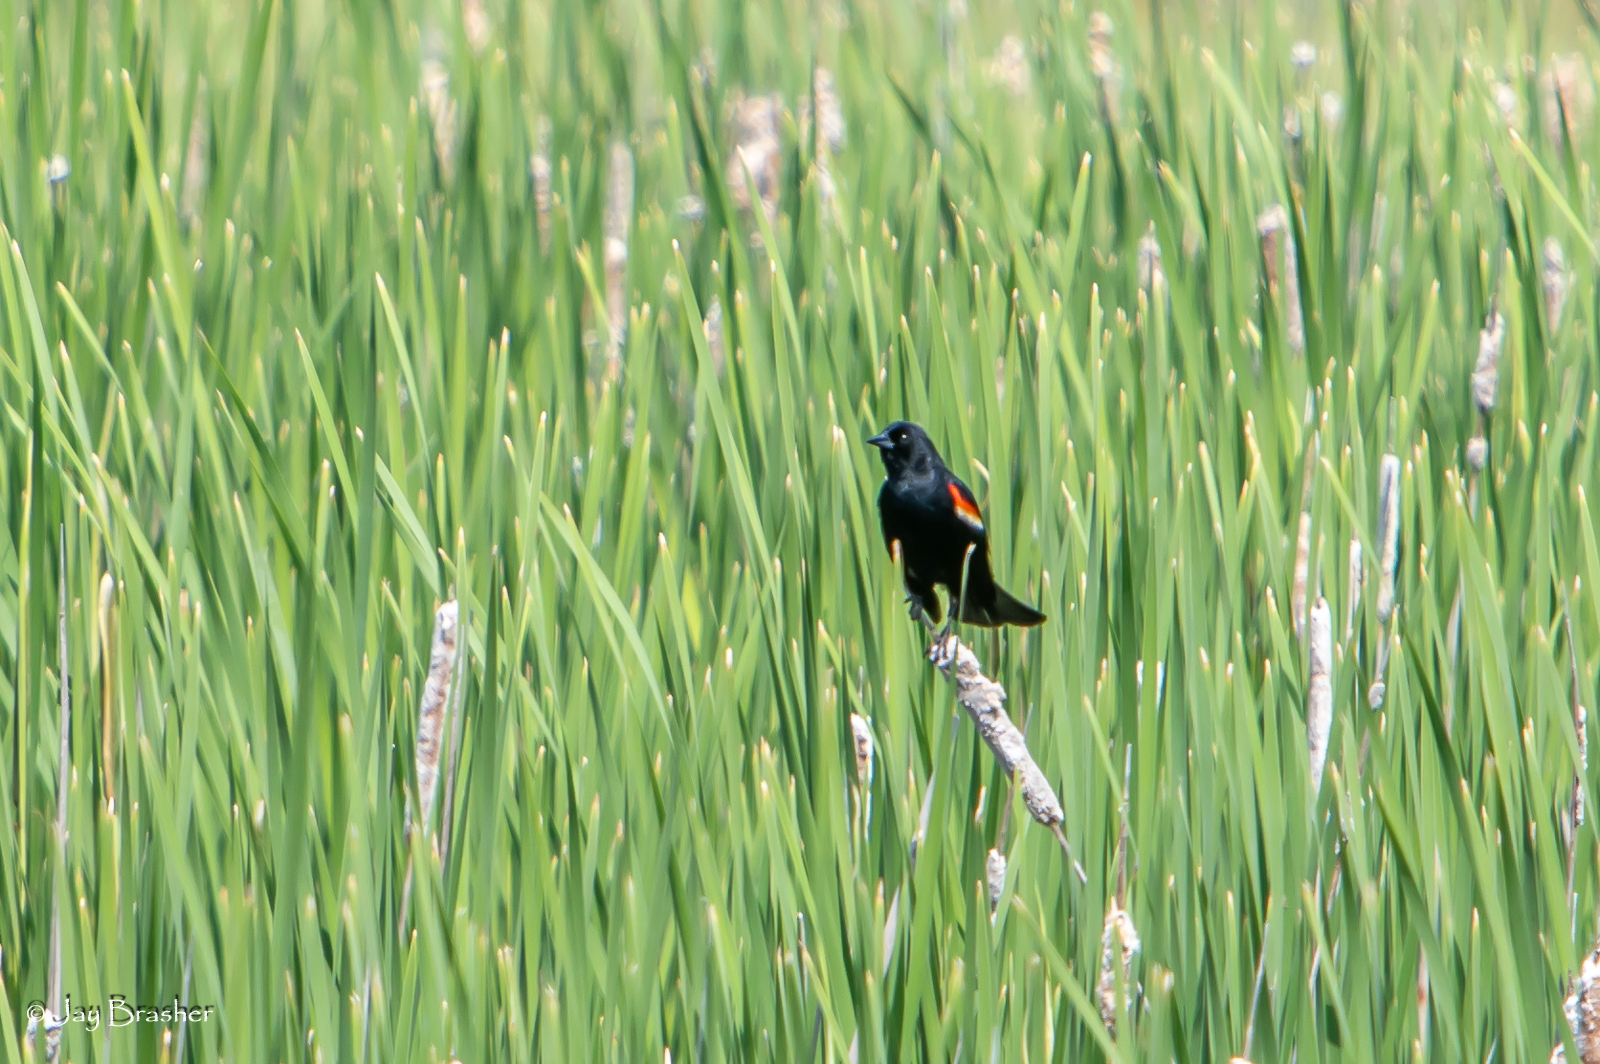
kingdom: Animalia
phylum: Chordata
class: Aves
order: Passeriformes
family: Icteridae
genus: Agelaius
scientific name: Agelaius phoeniceus
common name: Red-winged blackbird
